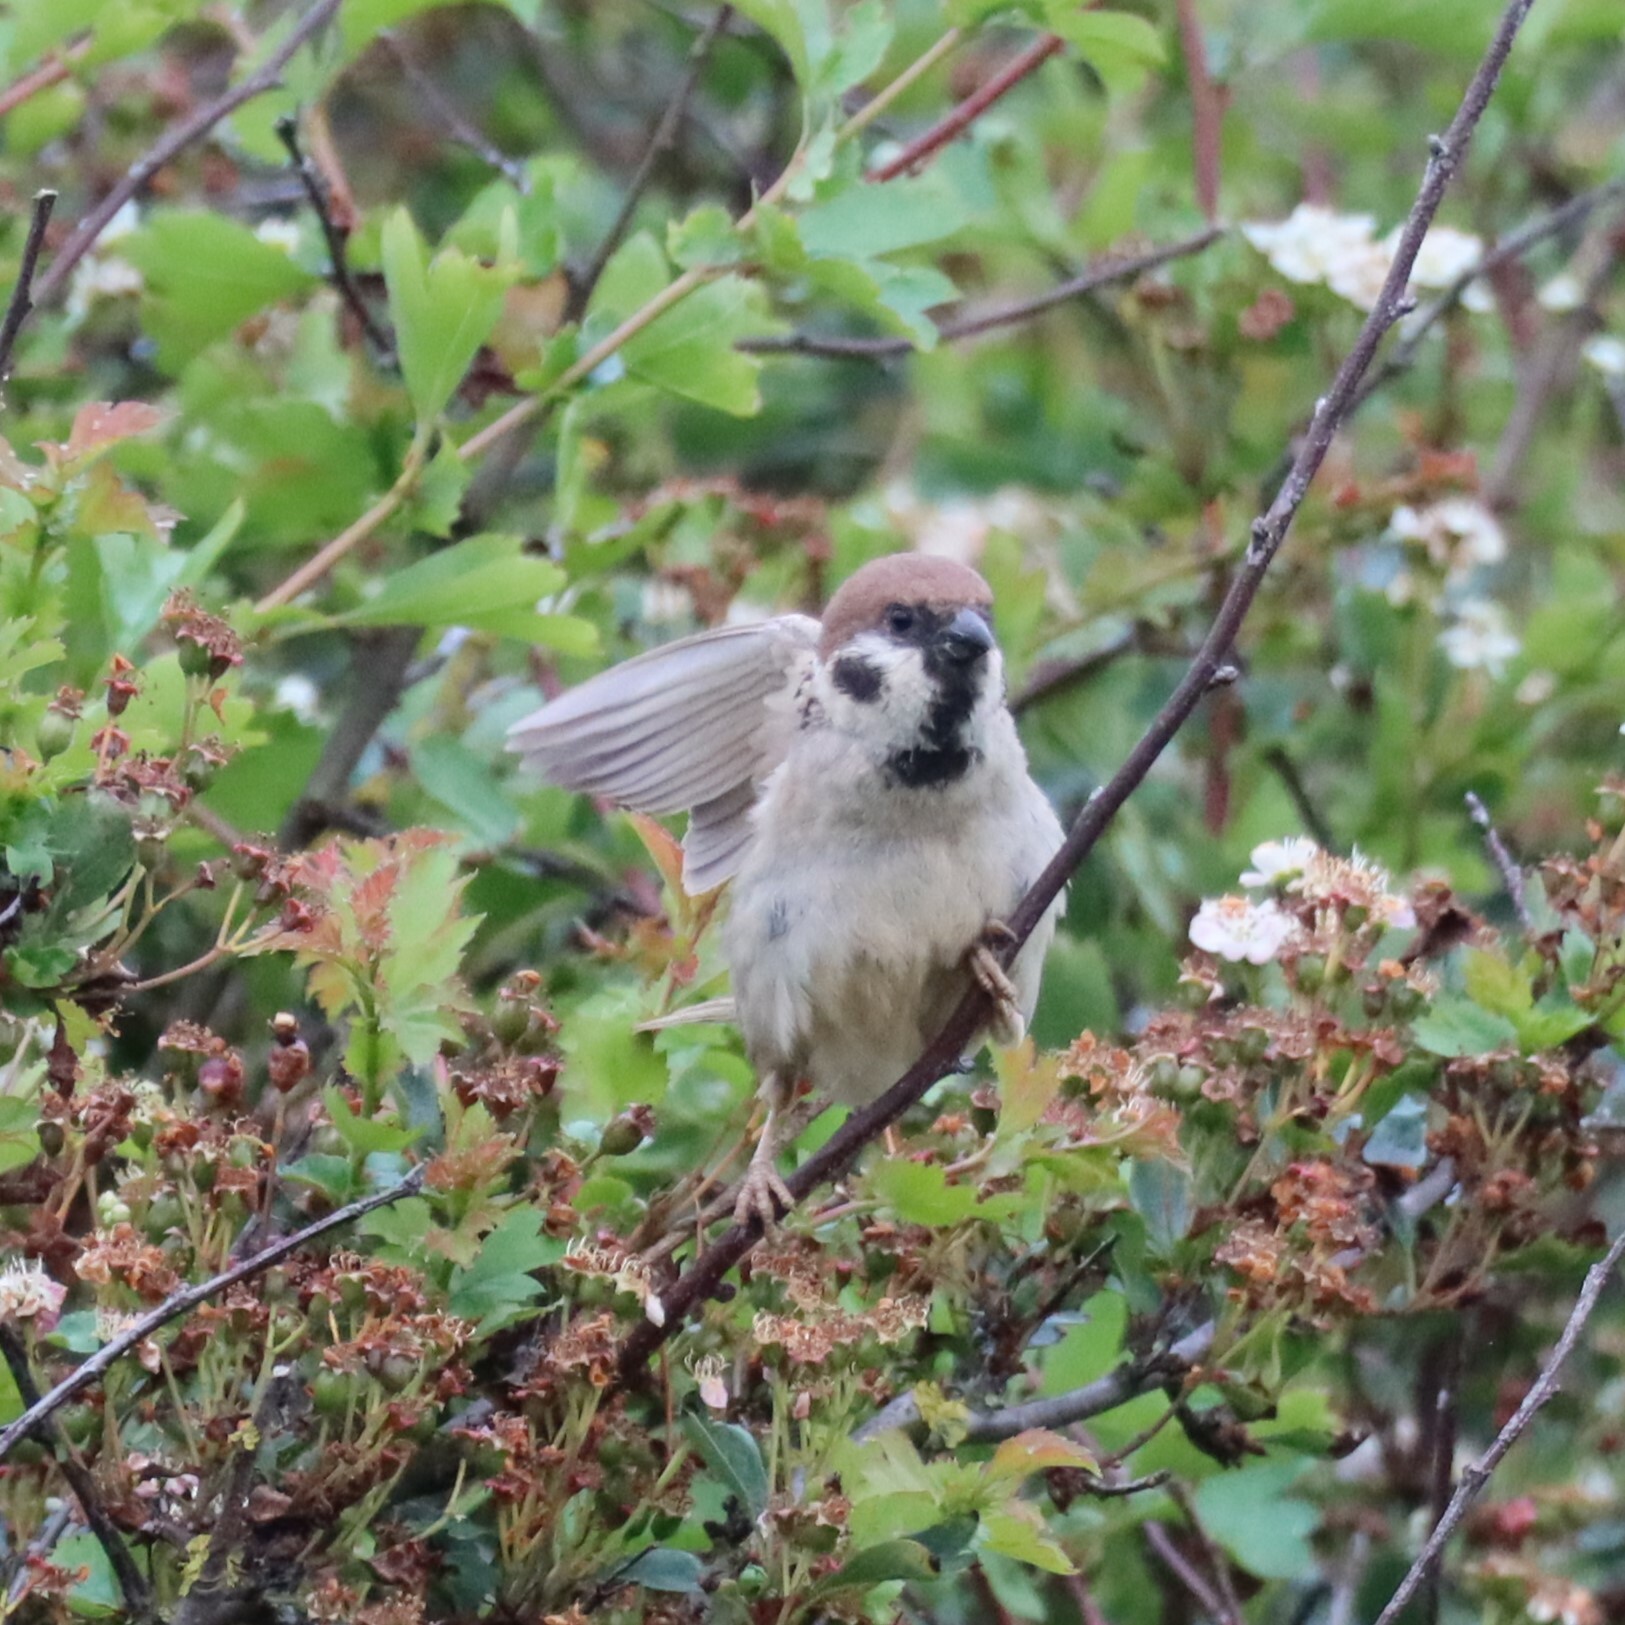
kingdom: Animalia
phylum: Chordata
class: Aves
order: Passeriformes
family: Passeridae
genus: Passer
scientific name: Passer montanus
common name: Eurasian tree sparrow
